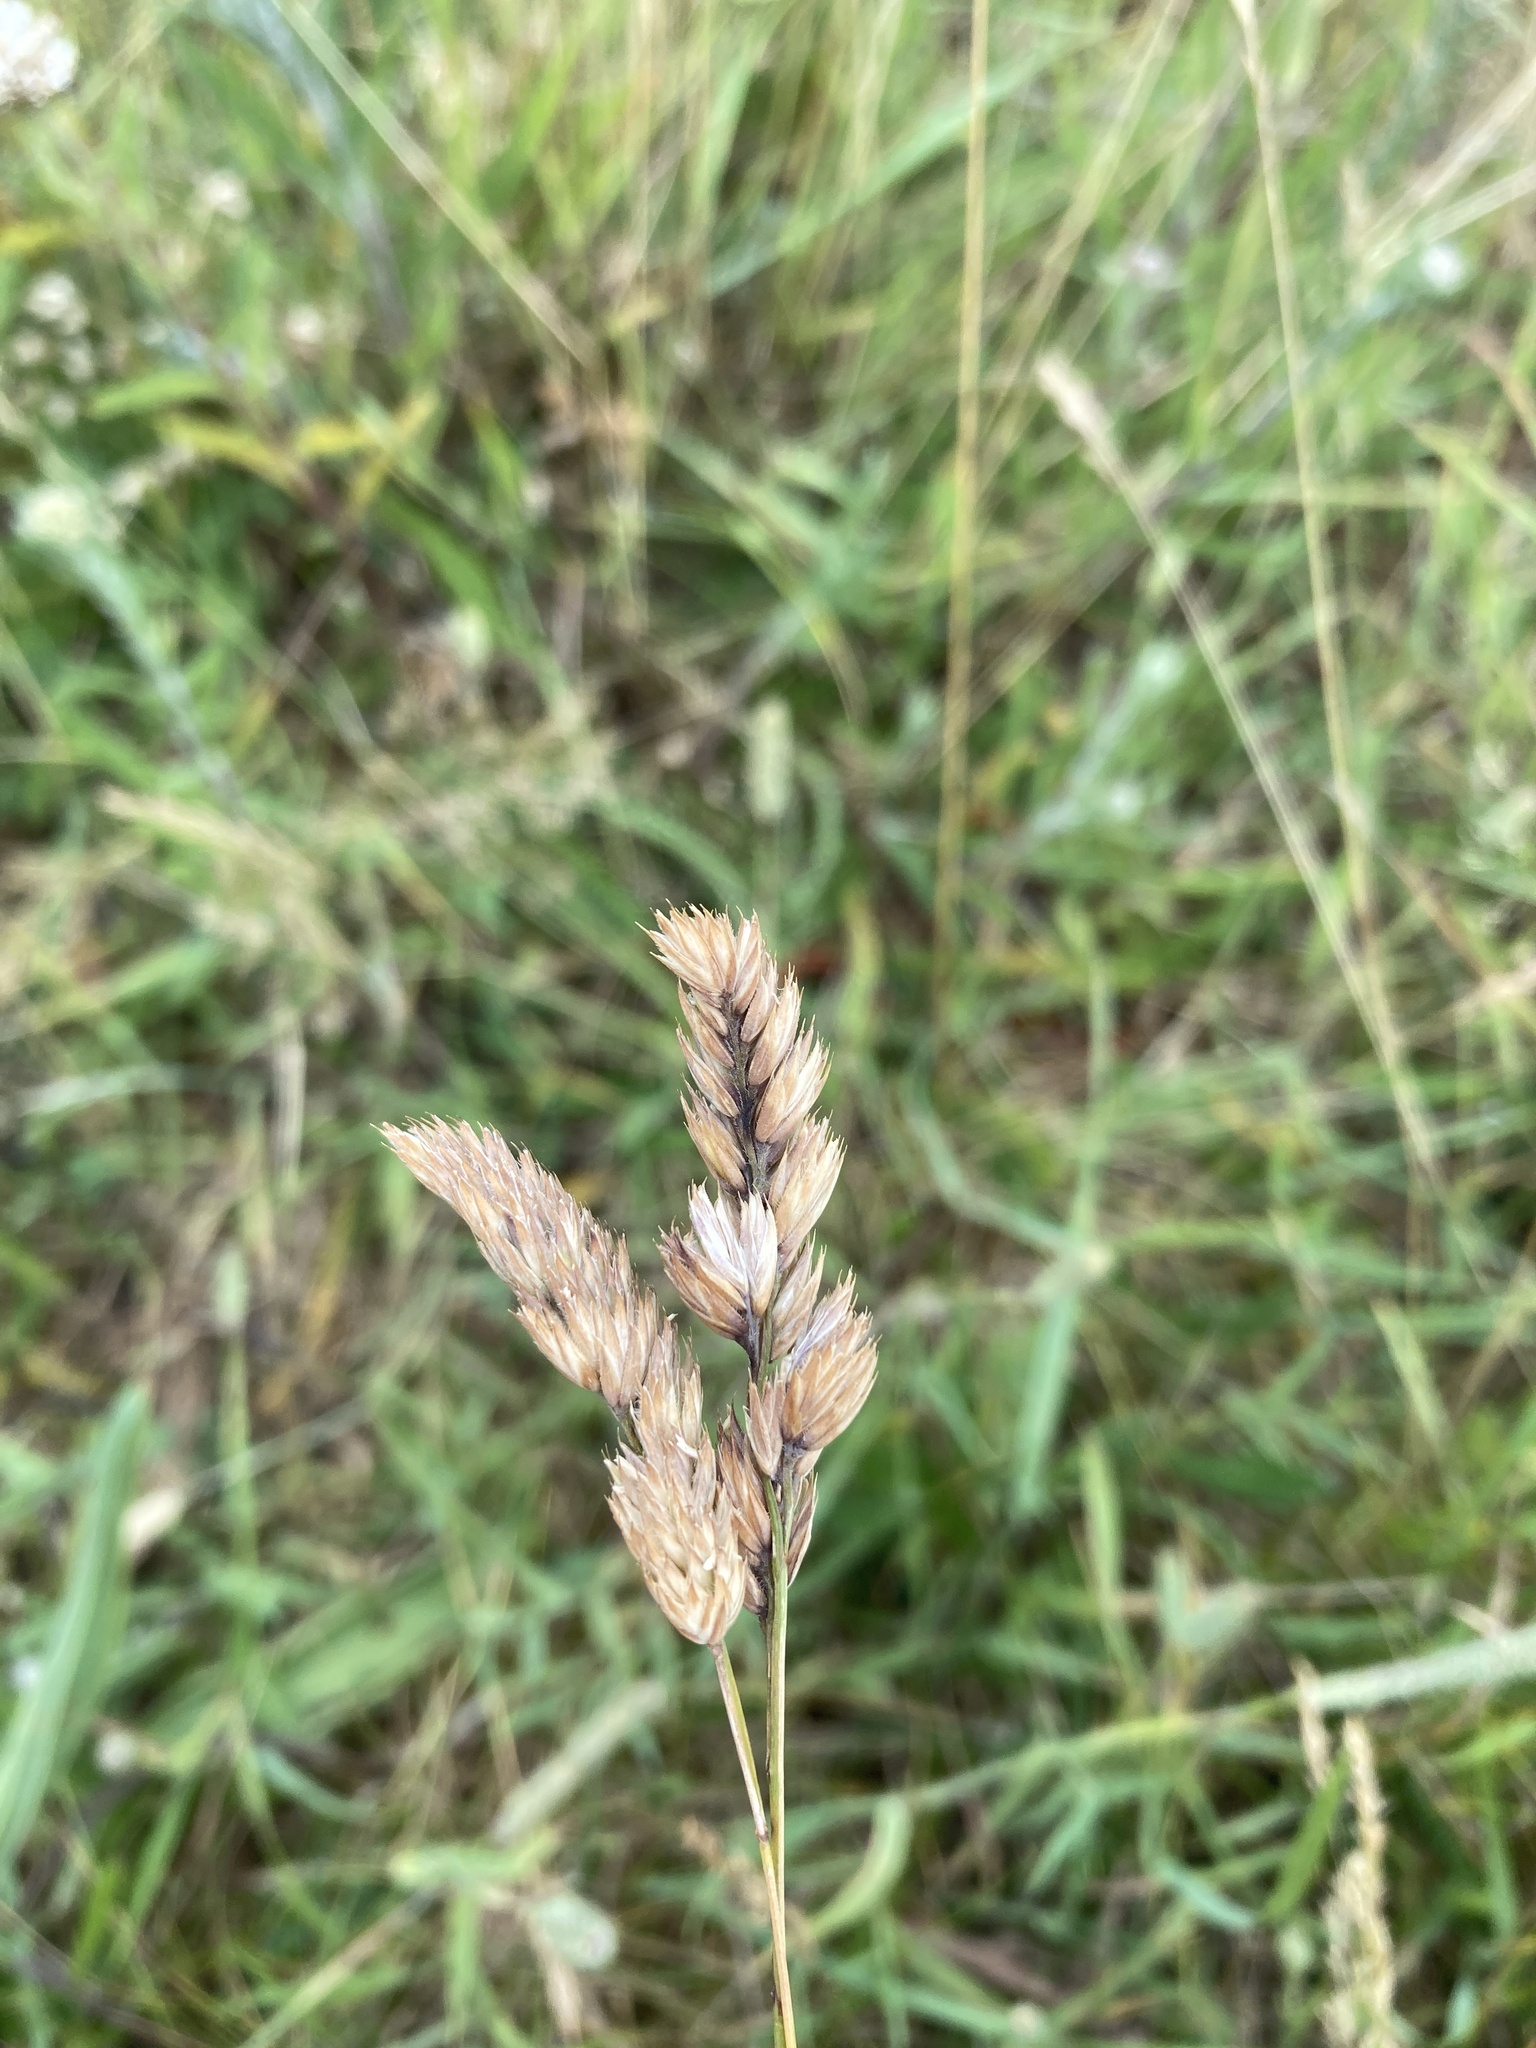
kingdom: Plantae
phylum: Tracheophyta
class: Liliopsida
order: Poales
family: Poaceae
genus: Dactylis
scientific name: Dactylis glomerata
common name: Orchardgrass
